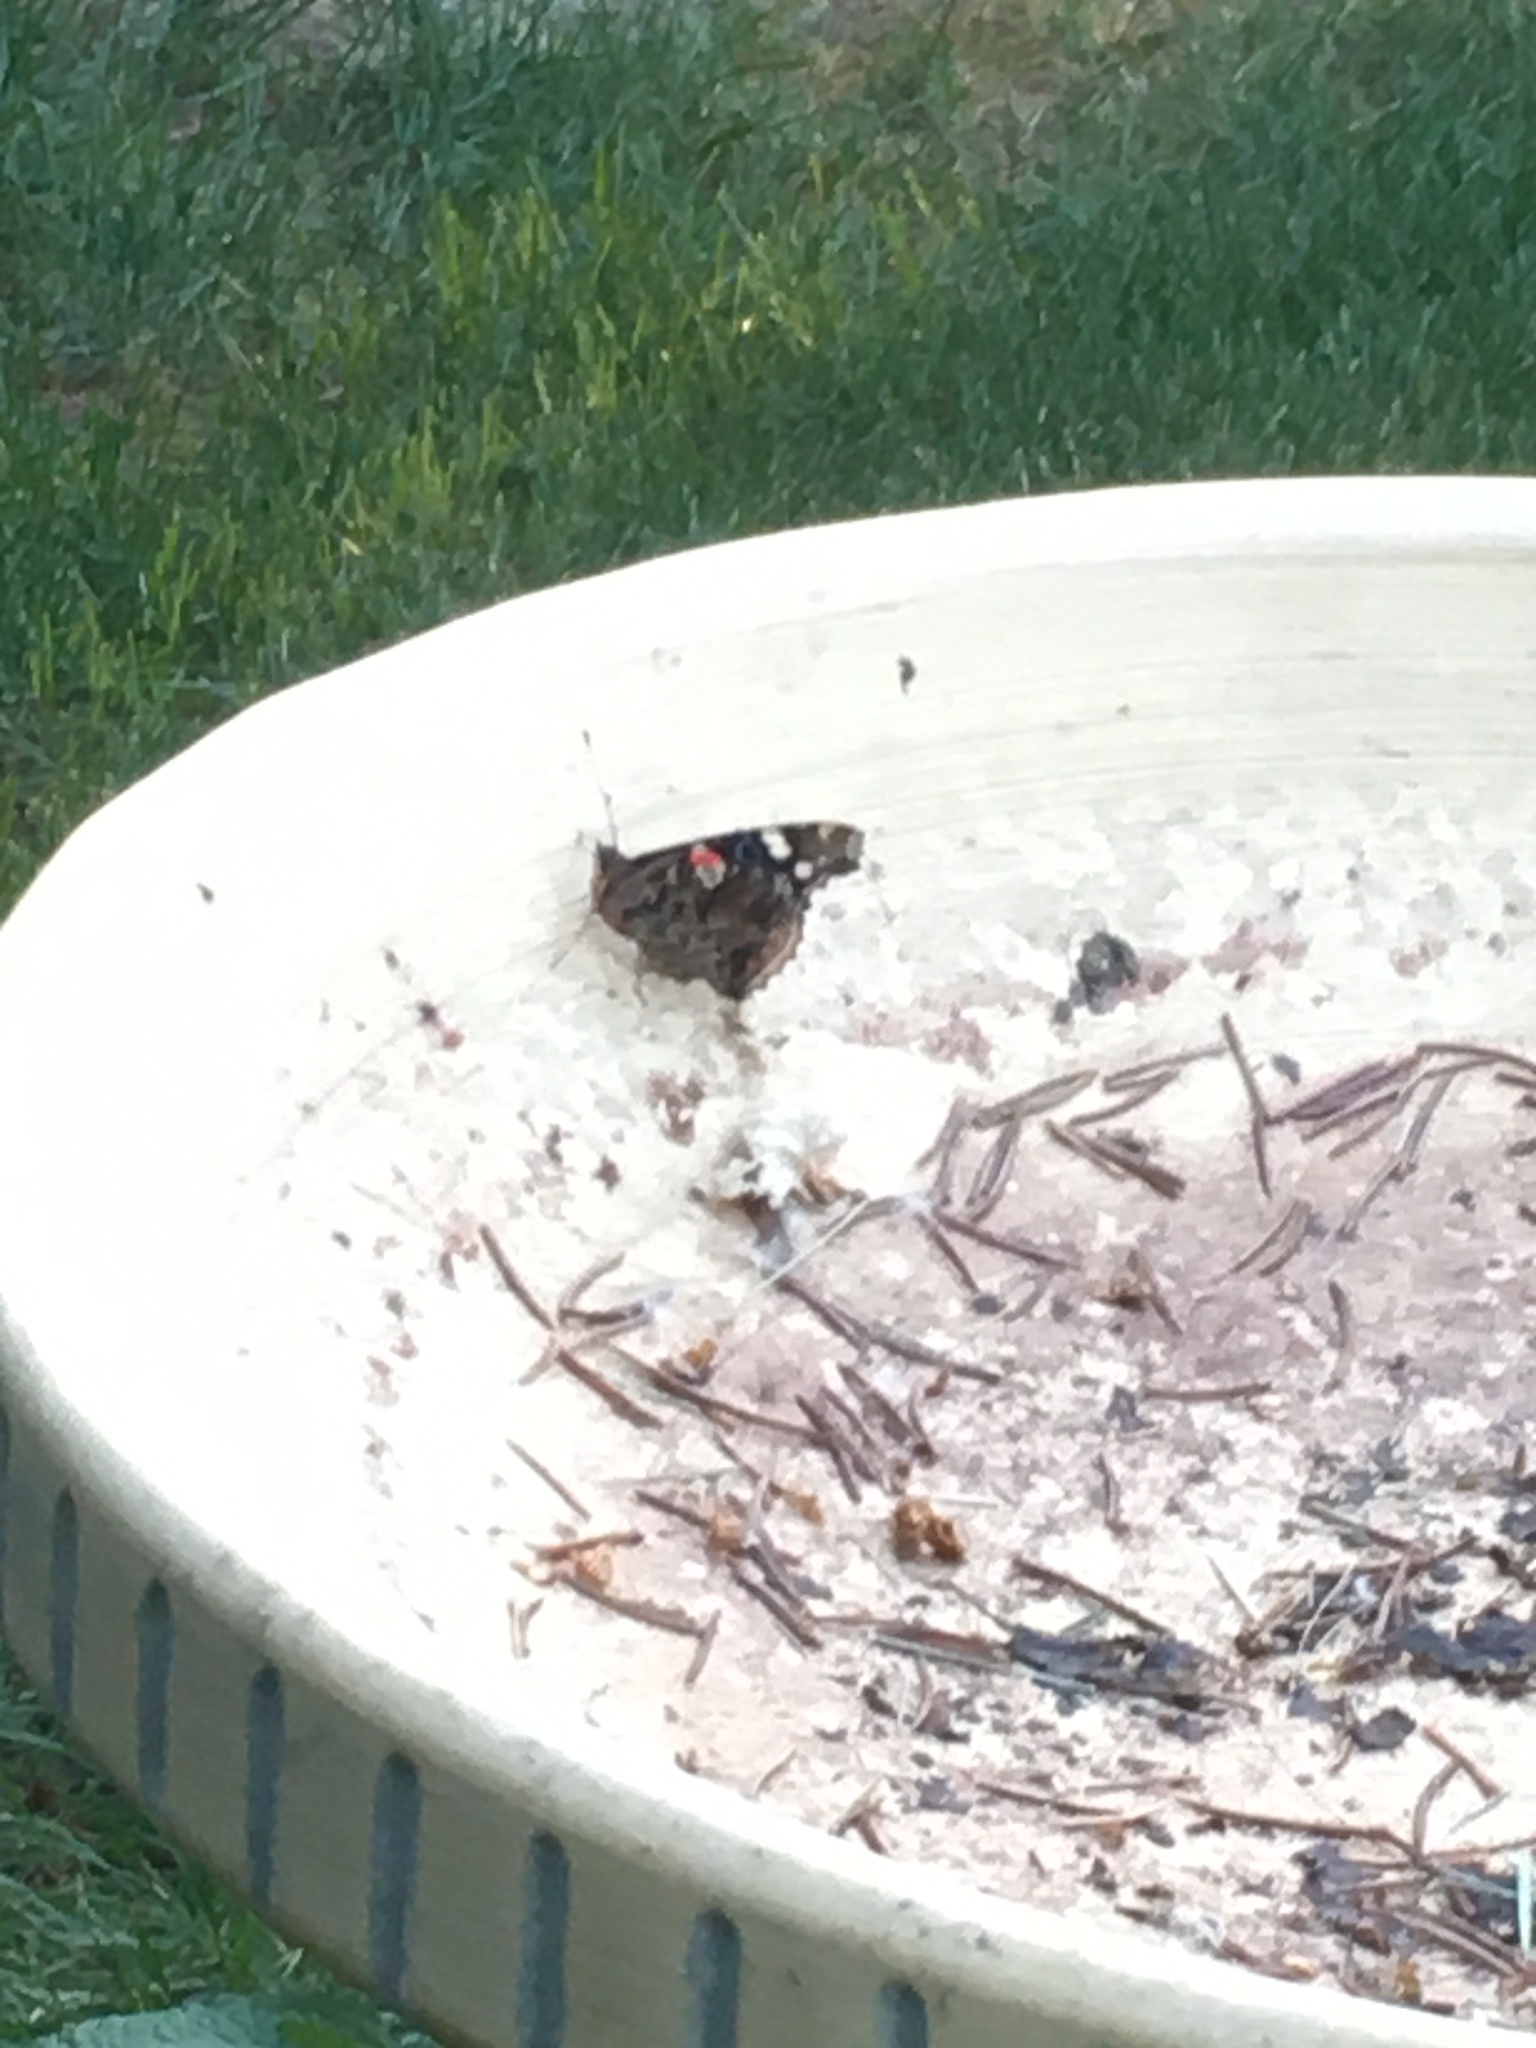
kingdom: Animalia
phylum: Arthropoda
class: Insecta
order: Lepidoptera
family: Nymphalidae
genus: Vanessa
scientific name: Vanessa atalanta
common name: Red admiral
